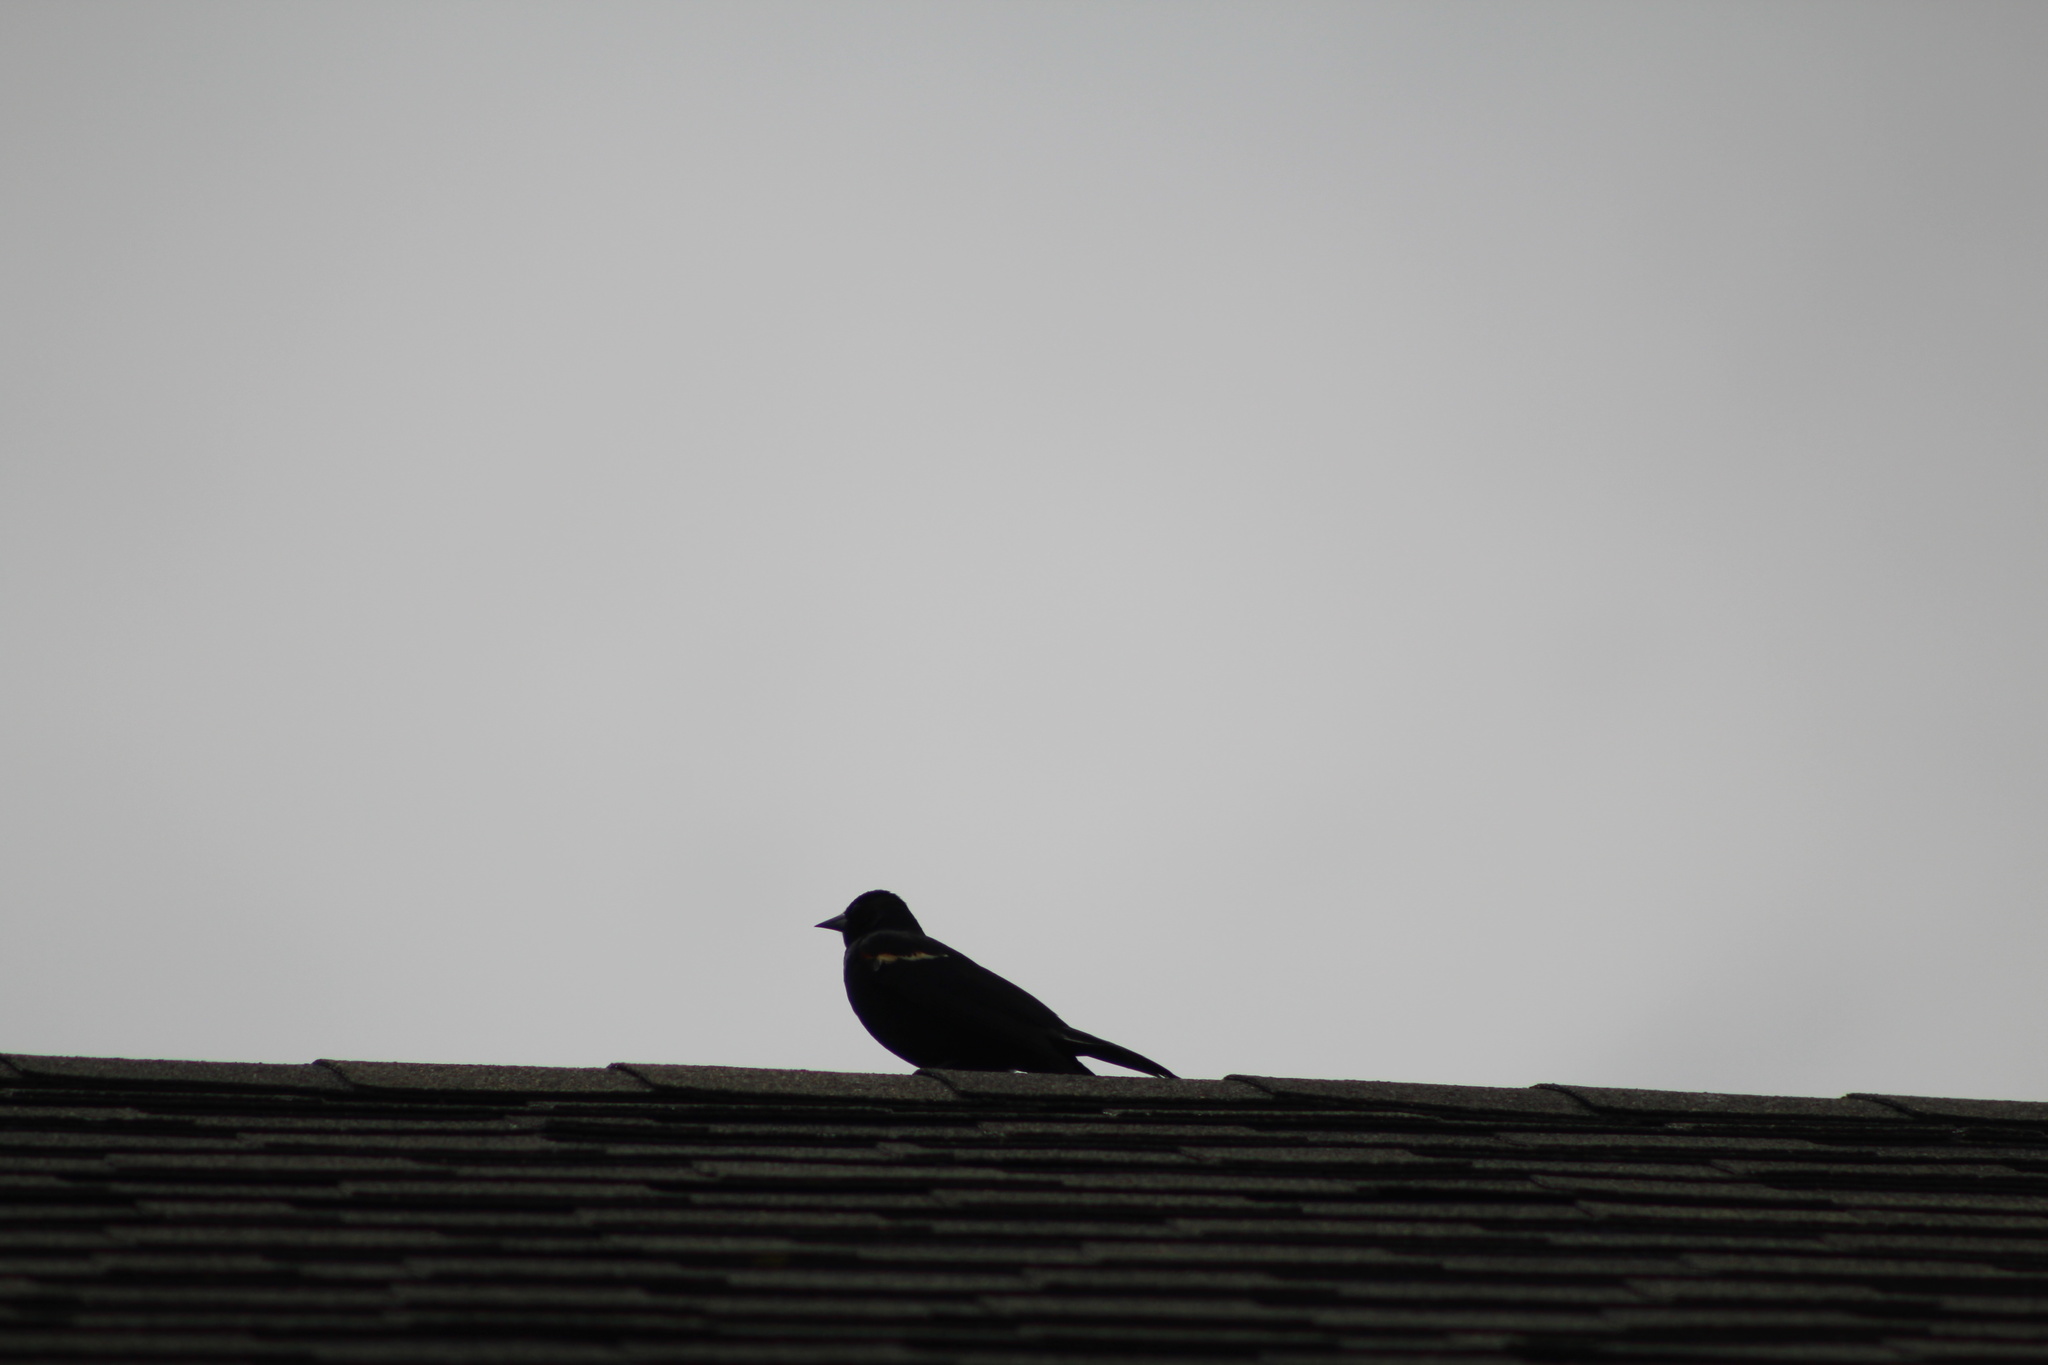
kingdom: Animalia
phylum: Chordata
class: Aves
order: Passeriformes
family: Icteridae
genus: Agelaius
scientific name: Agelaius phoeniceus
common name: Red-winged blackbird
